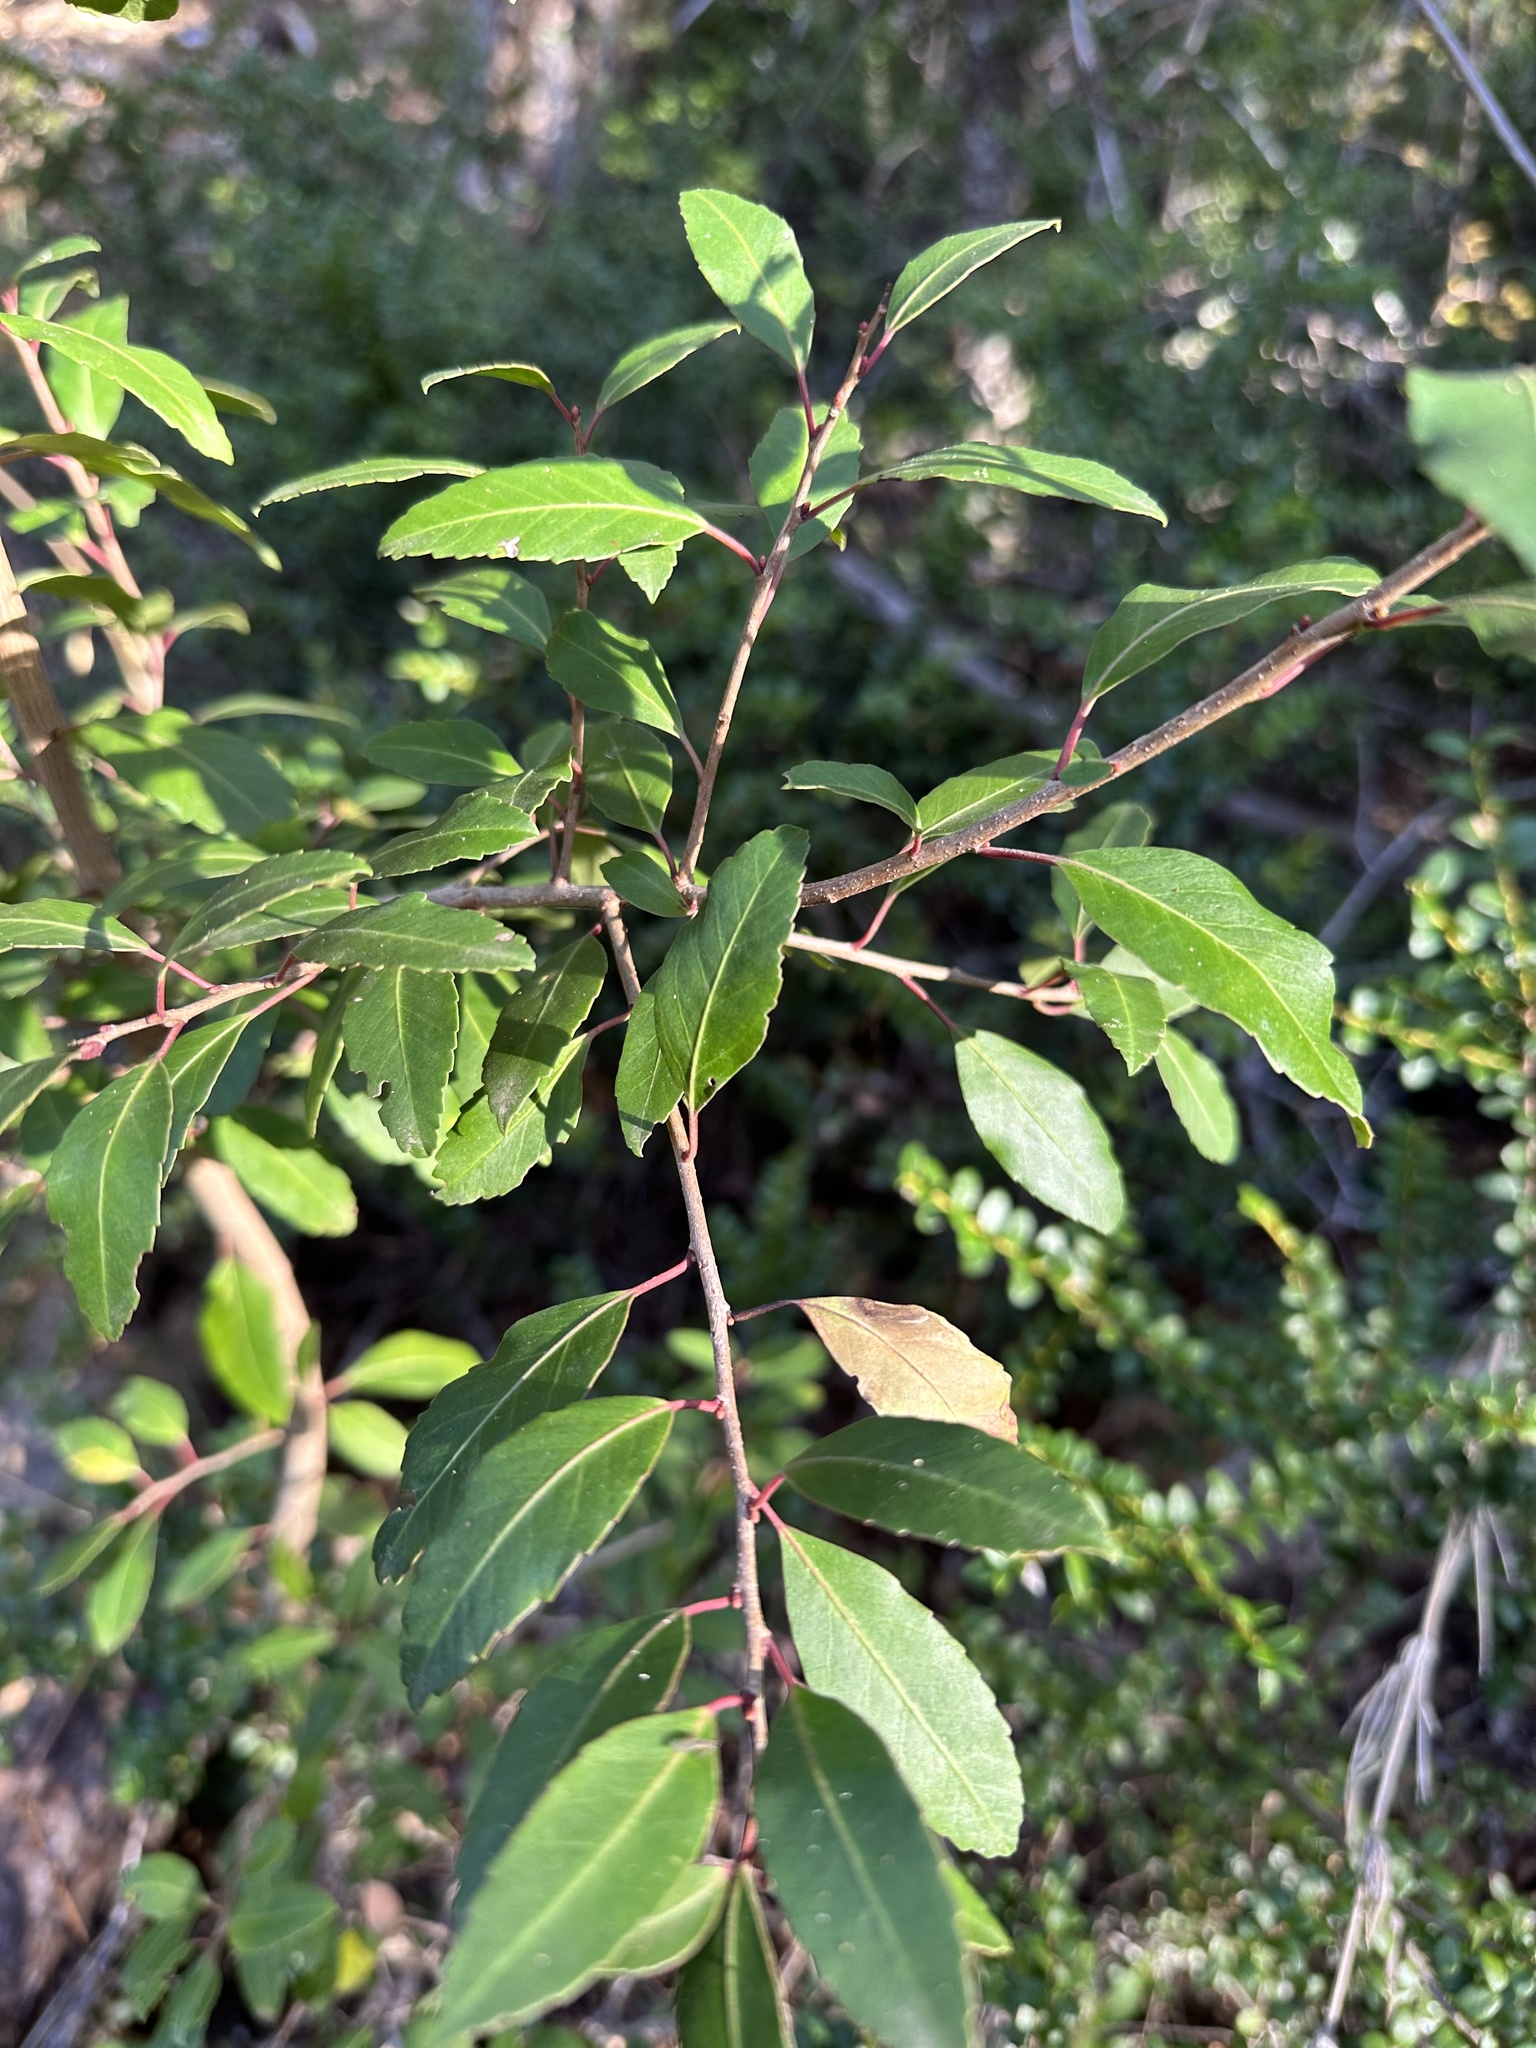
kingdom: Plantae
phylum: Tracheophyta
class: Magnoliopsida
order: Celastrales
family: Celastraceae
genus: Maytenus
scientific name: Maytenus magellanica
